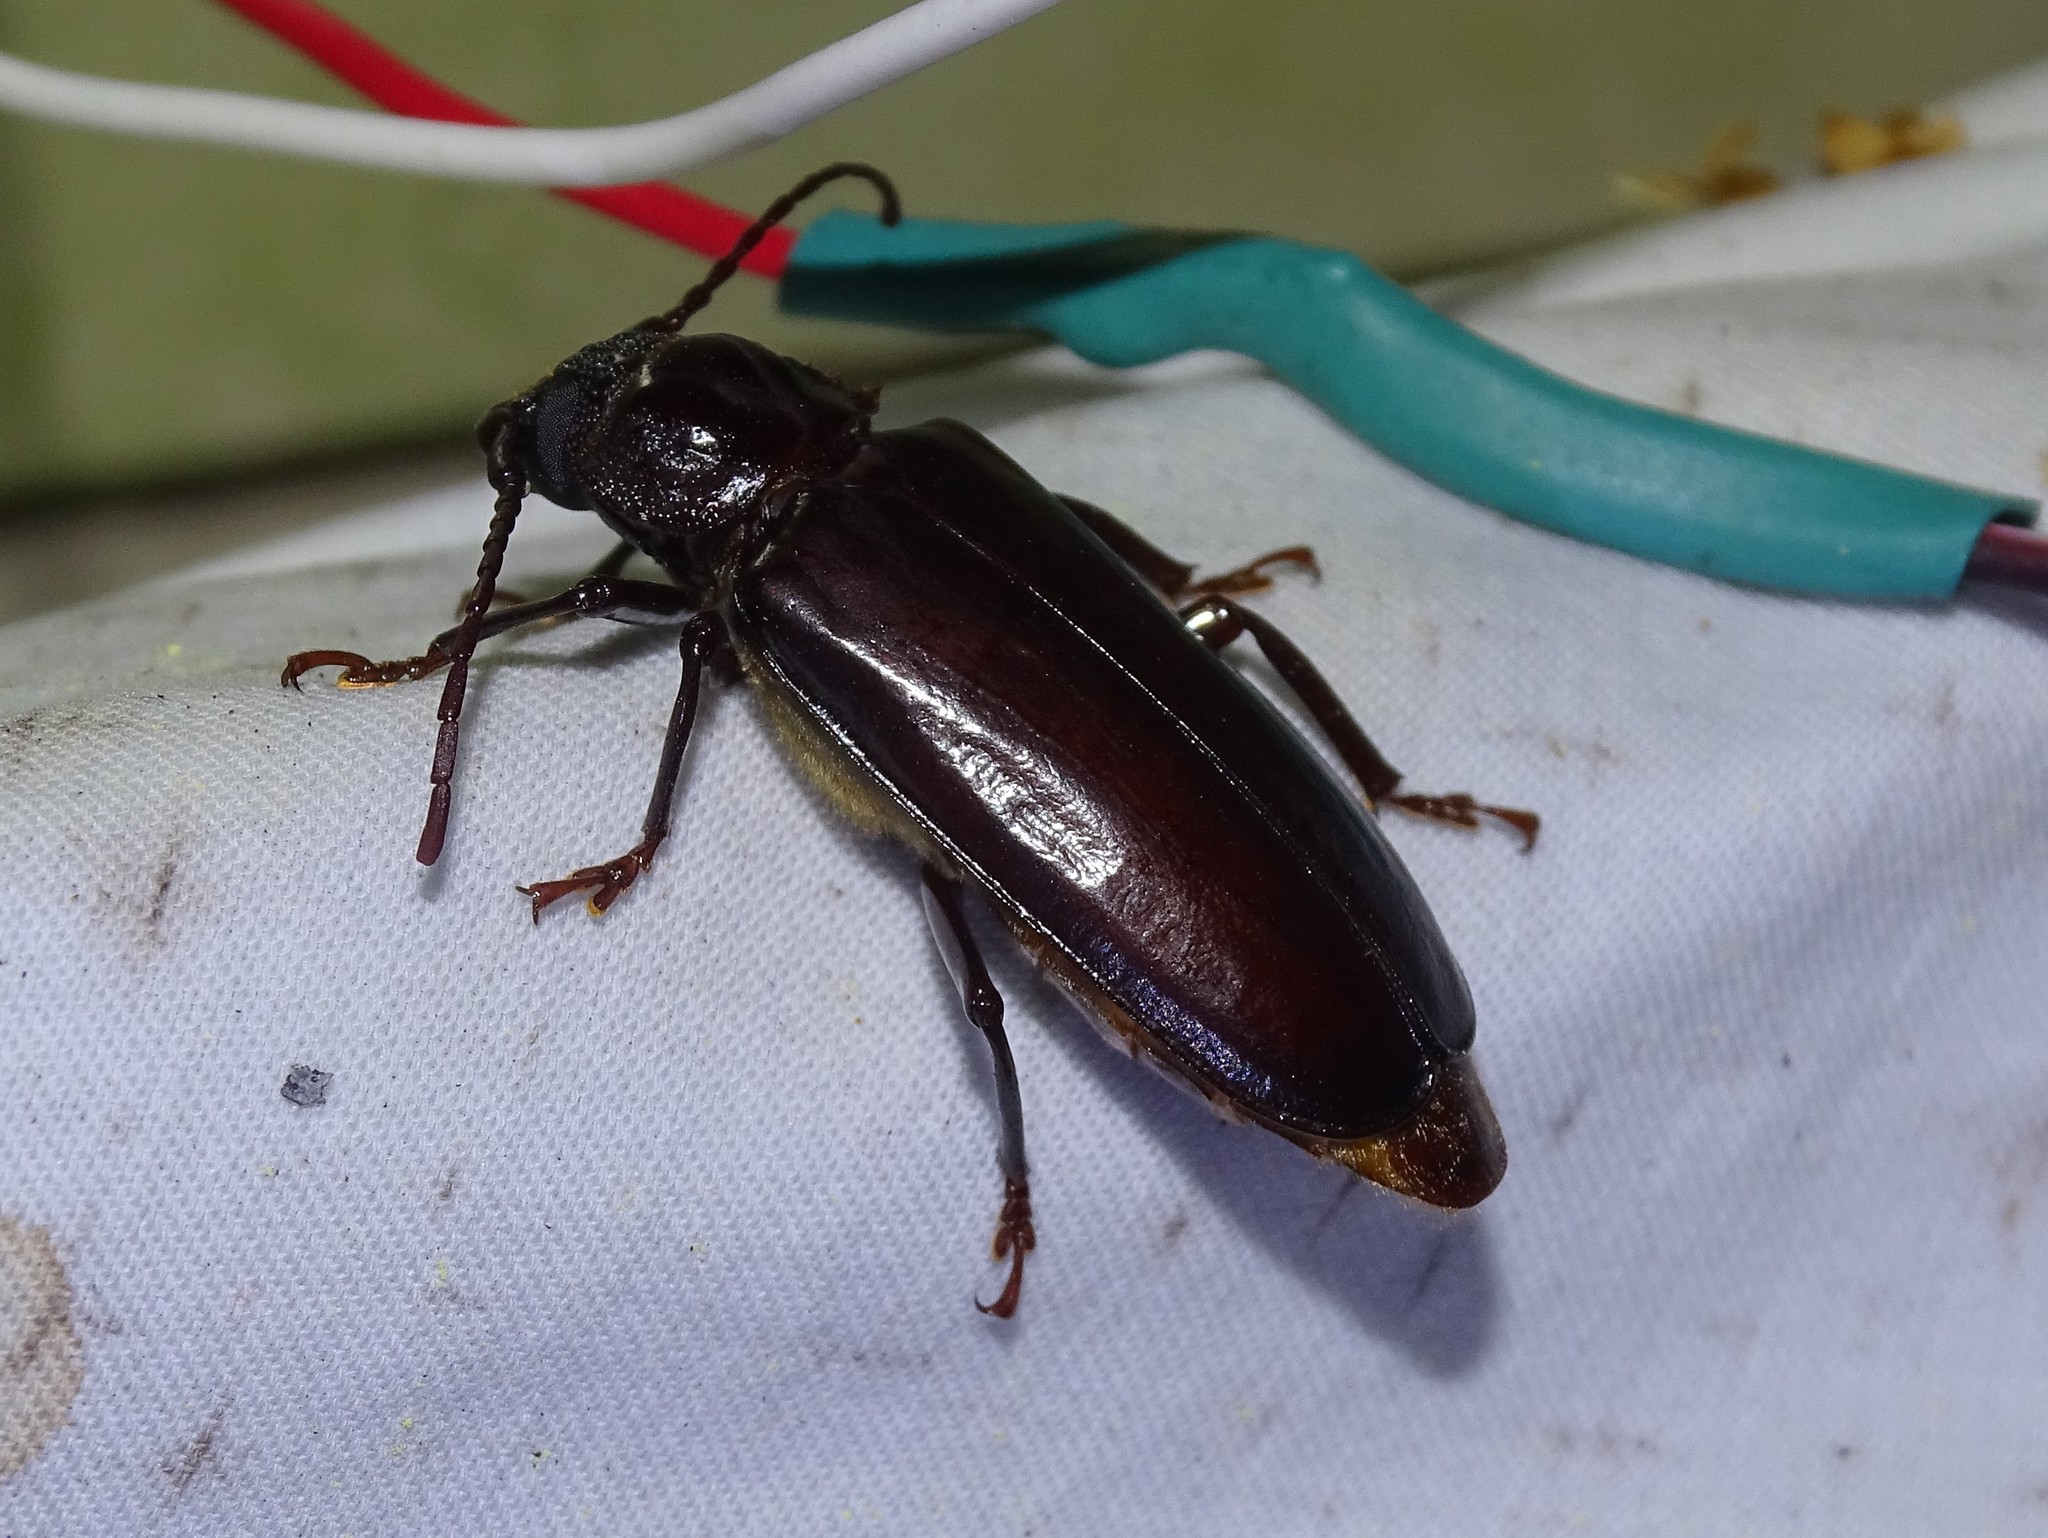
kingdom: Animalia
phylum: Arthropoda
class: Insecta
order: Coleoptera
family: Cerambycidae
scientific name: Cerambycidae
